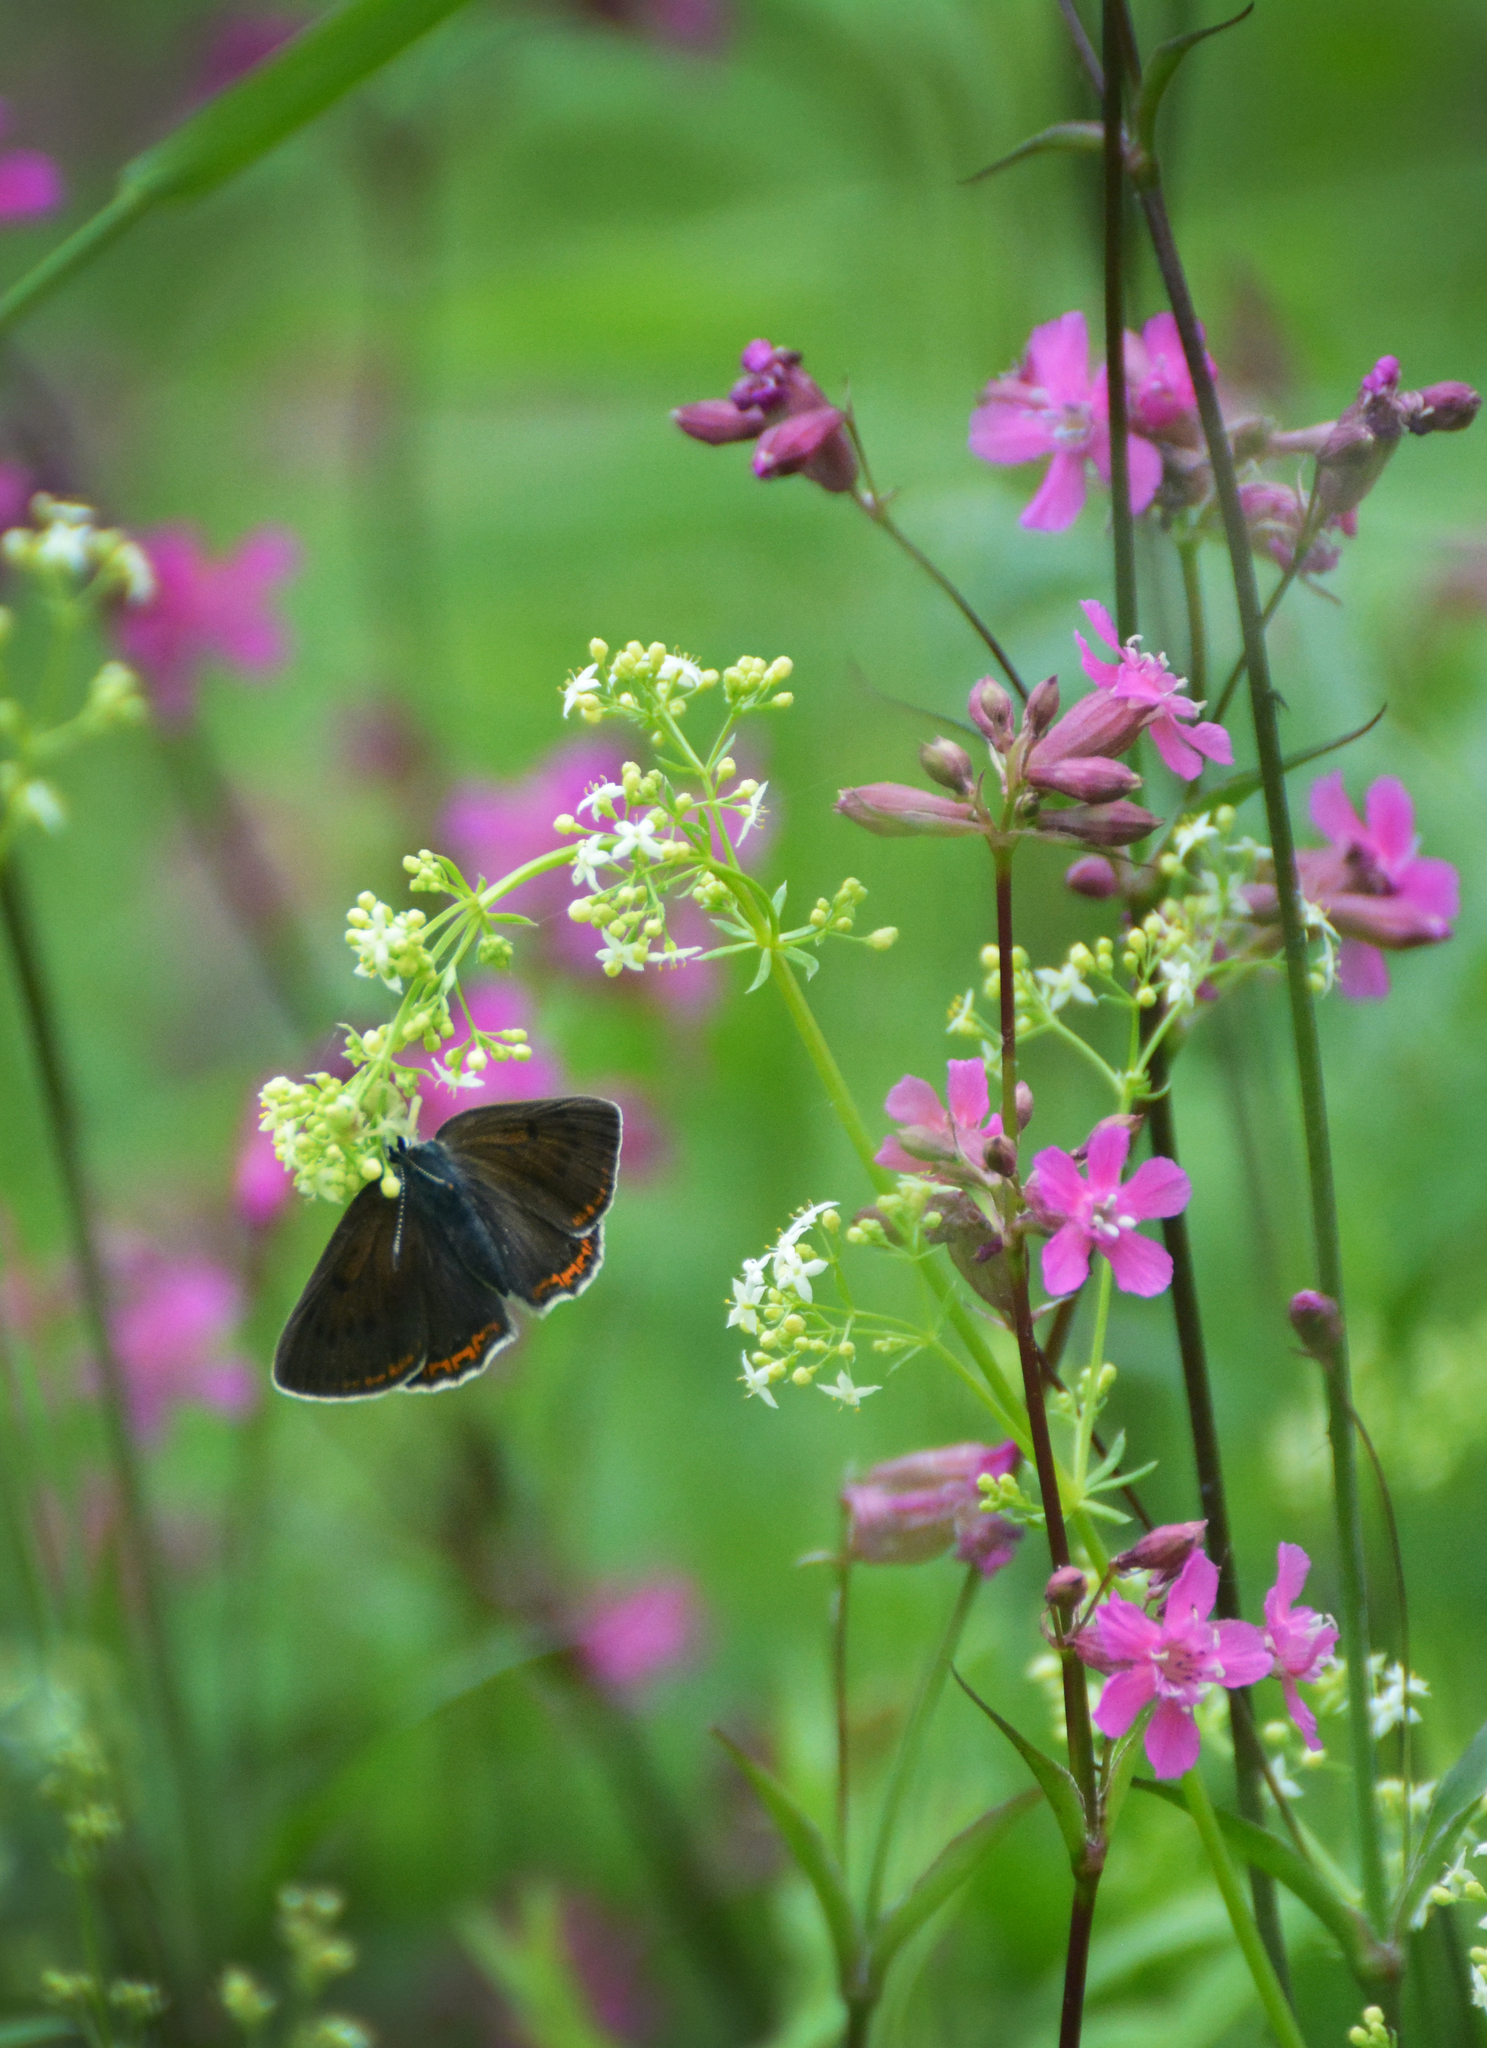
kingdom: Animalia
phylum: Arthropoda
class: Insecta
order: Lepidoptera
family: Lycaenidae
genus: Lycaena
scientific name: Lycaena alciphron
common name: Purple-shot copper
